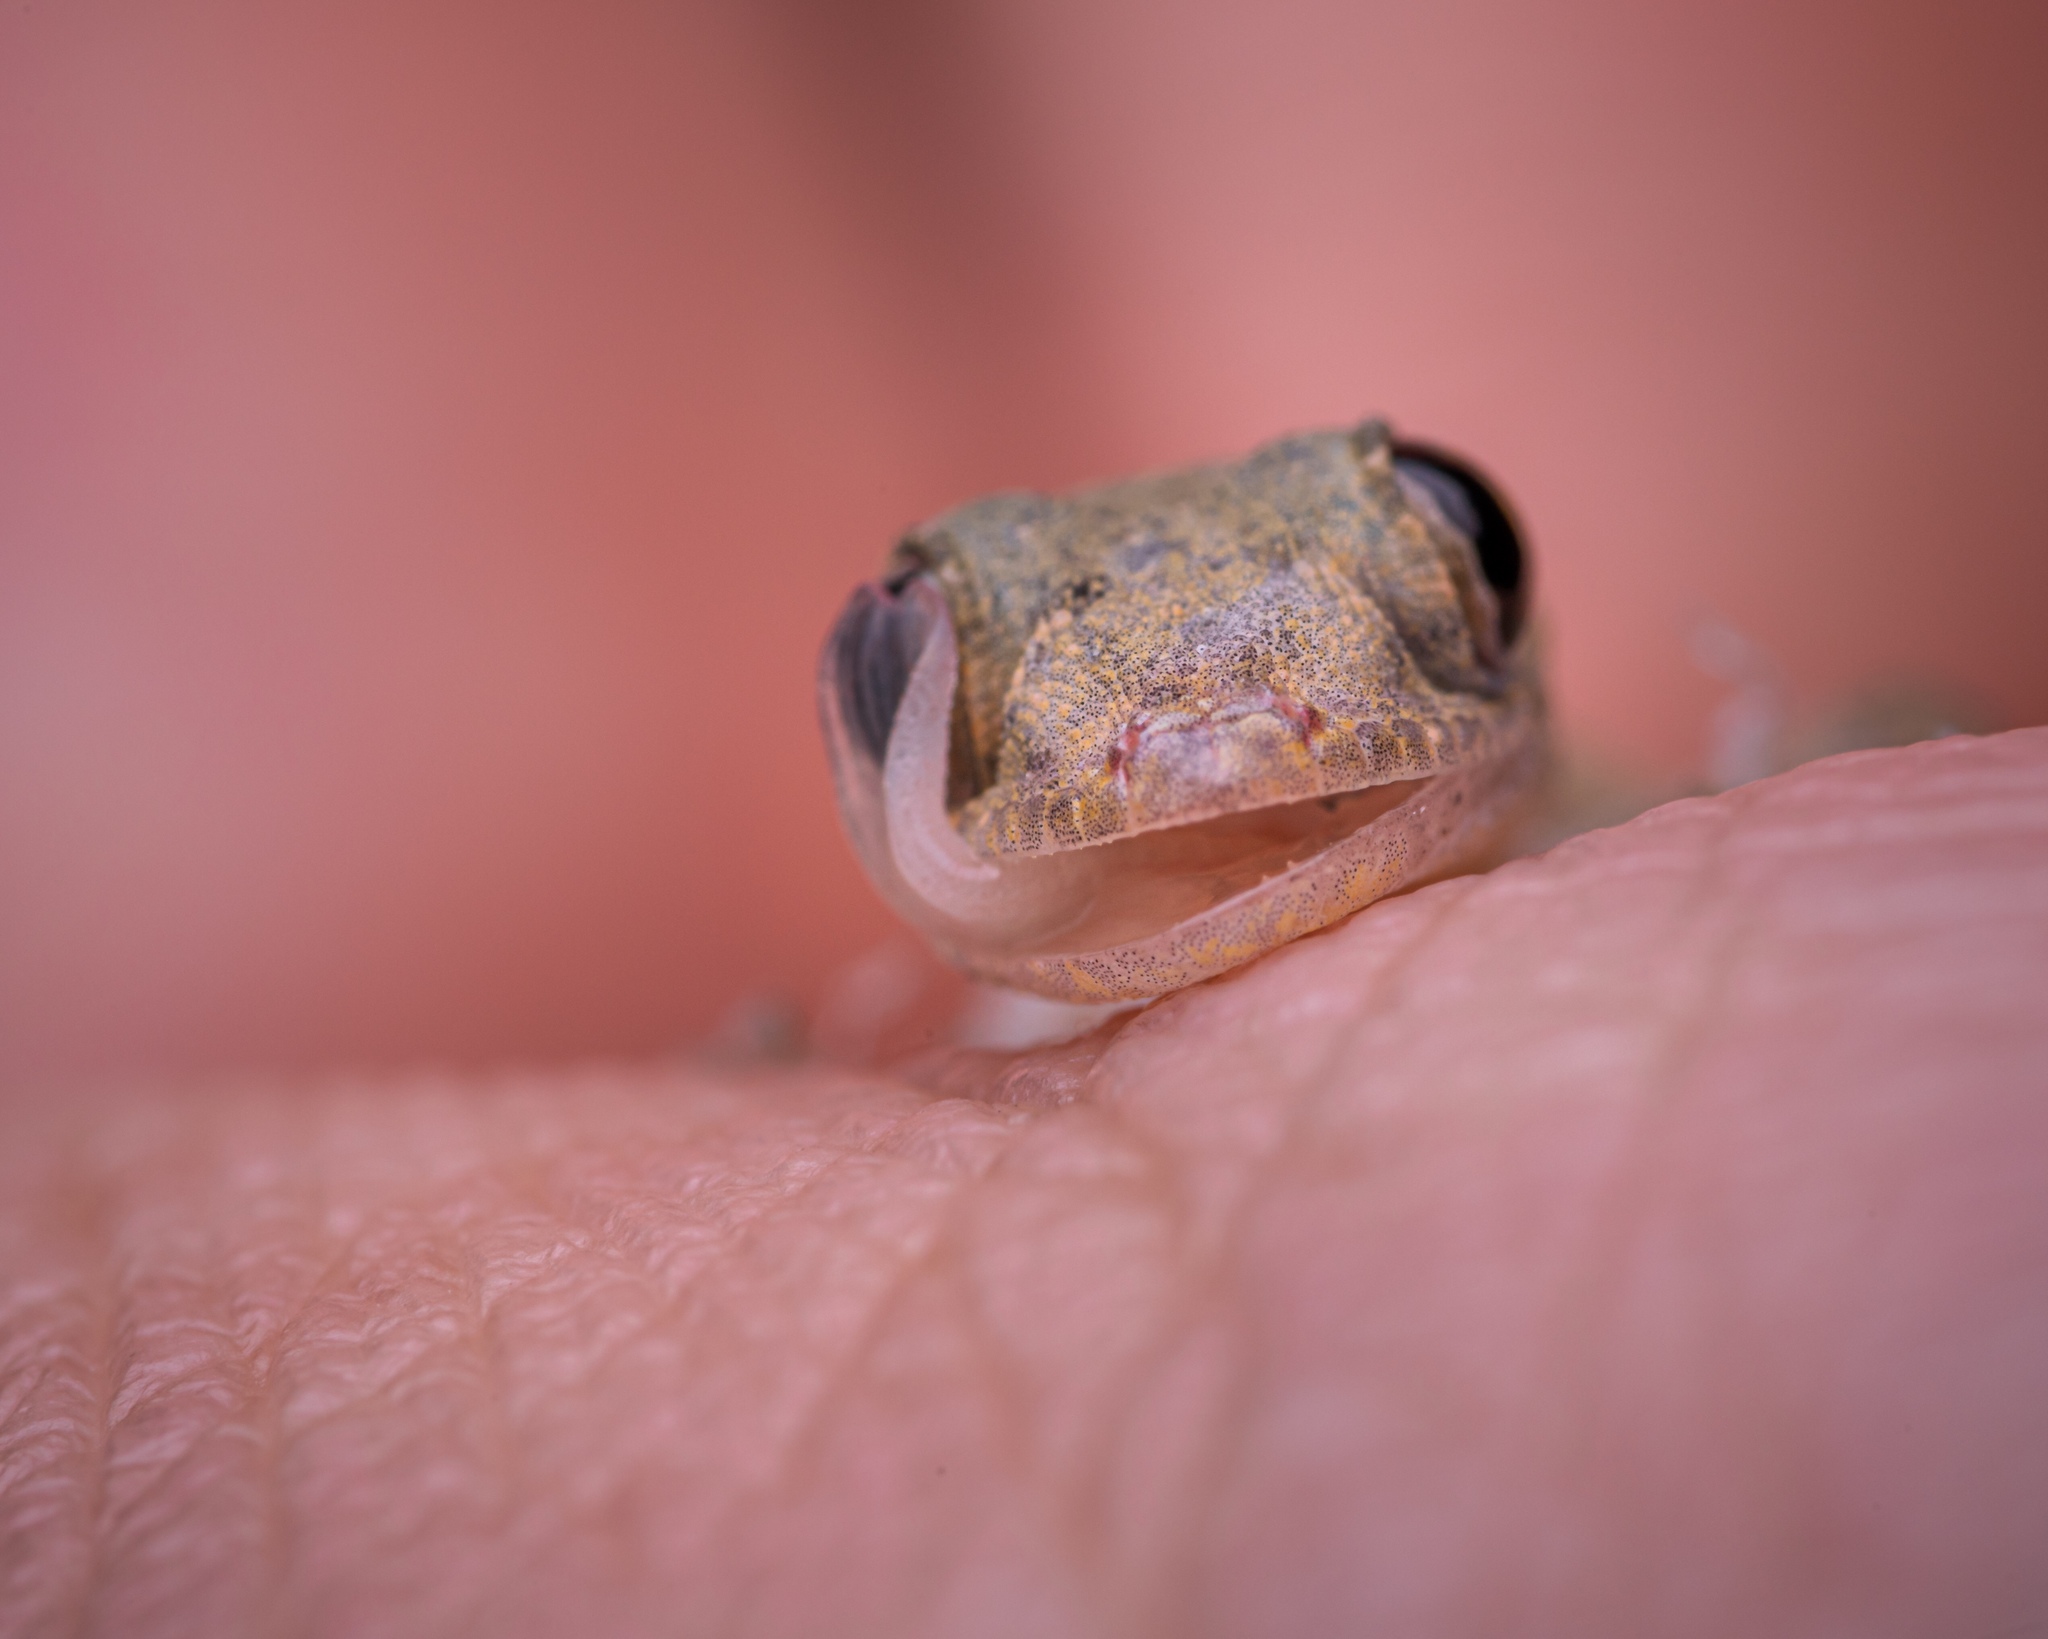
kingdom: Animalia
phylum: Chordata
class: Squamata
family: Gekkonidae
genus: Hemidactylus
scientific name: Hemidactylus frenatus
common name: Common house gecko
